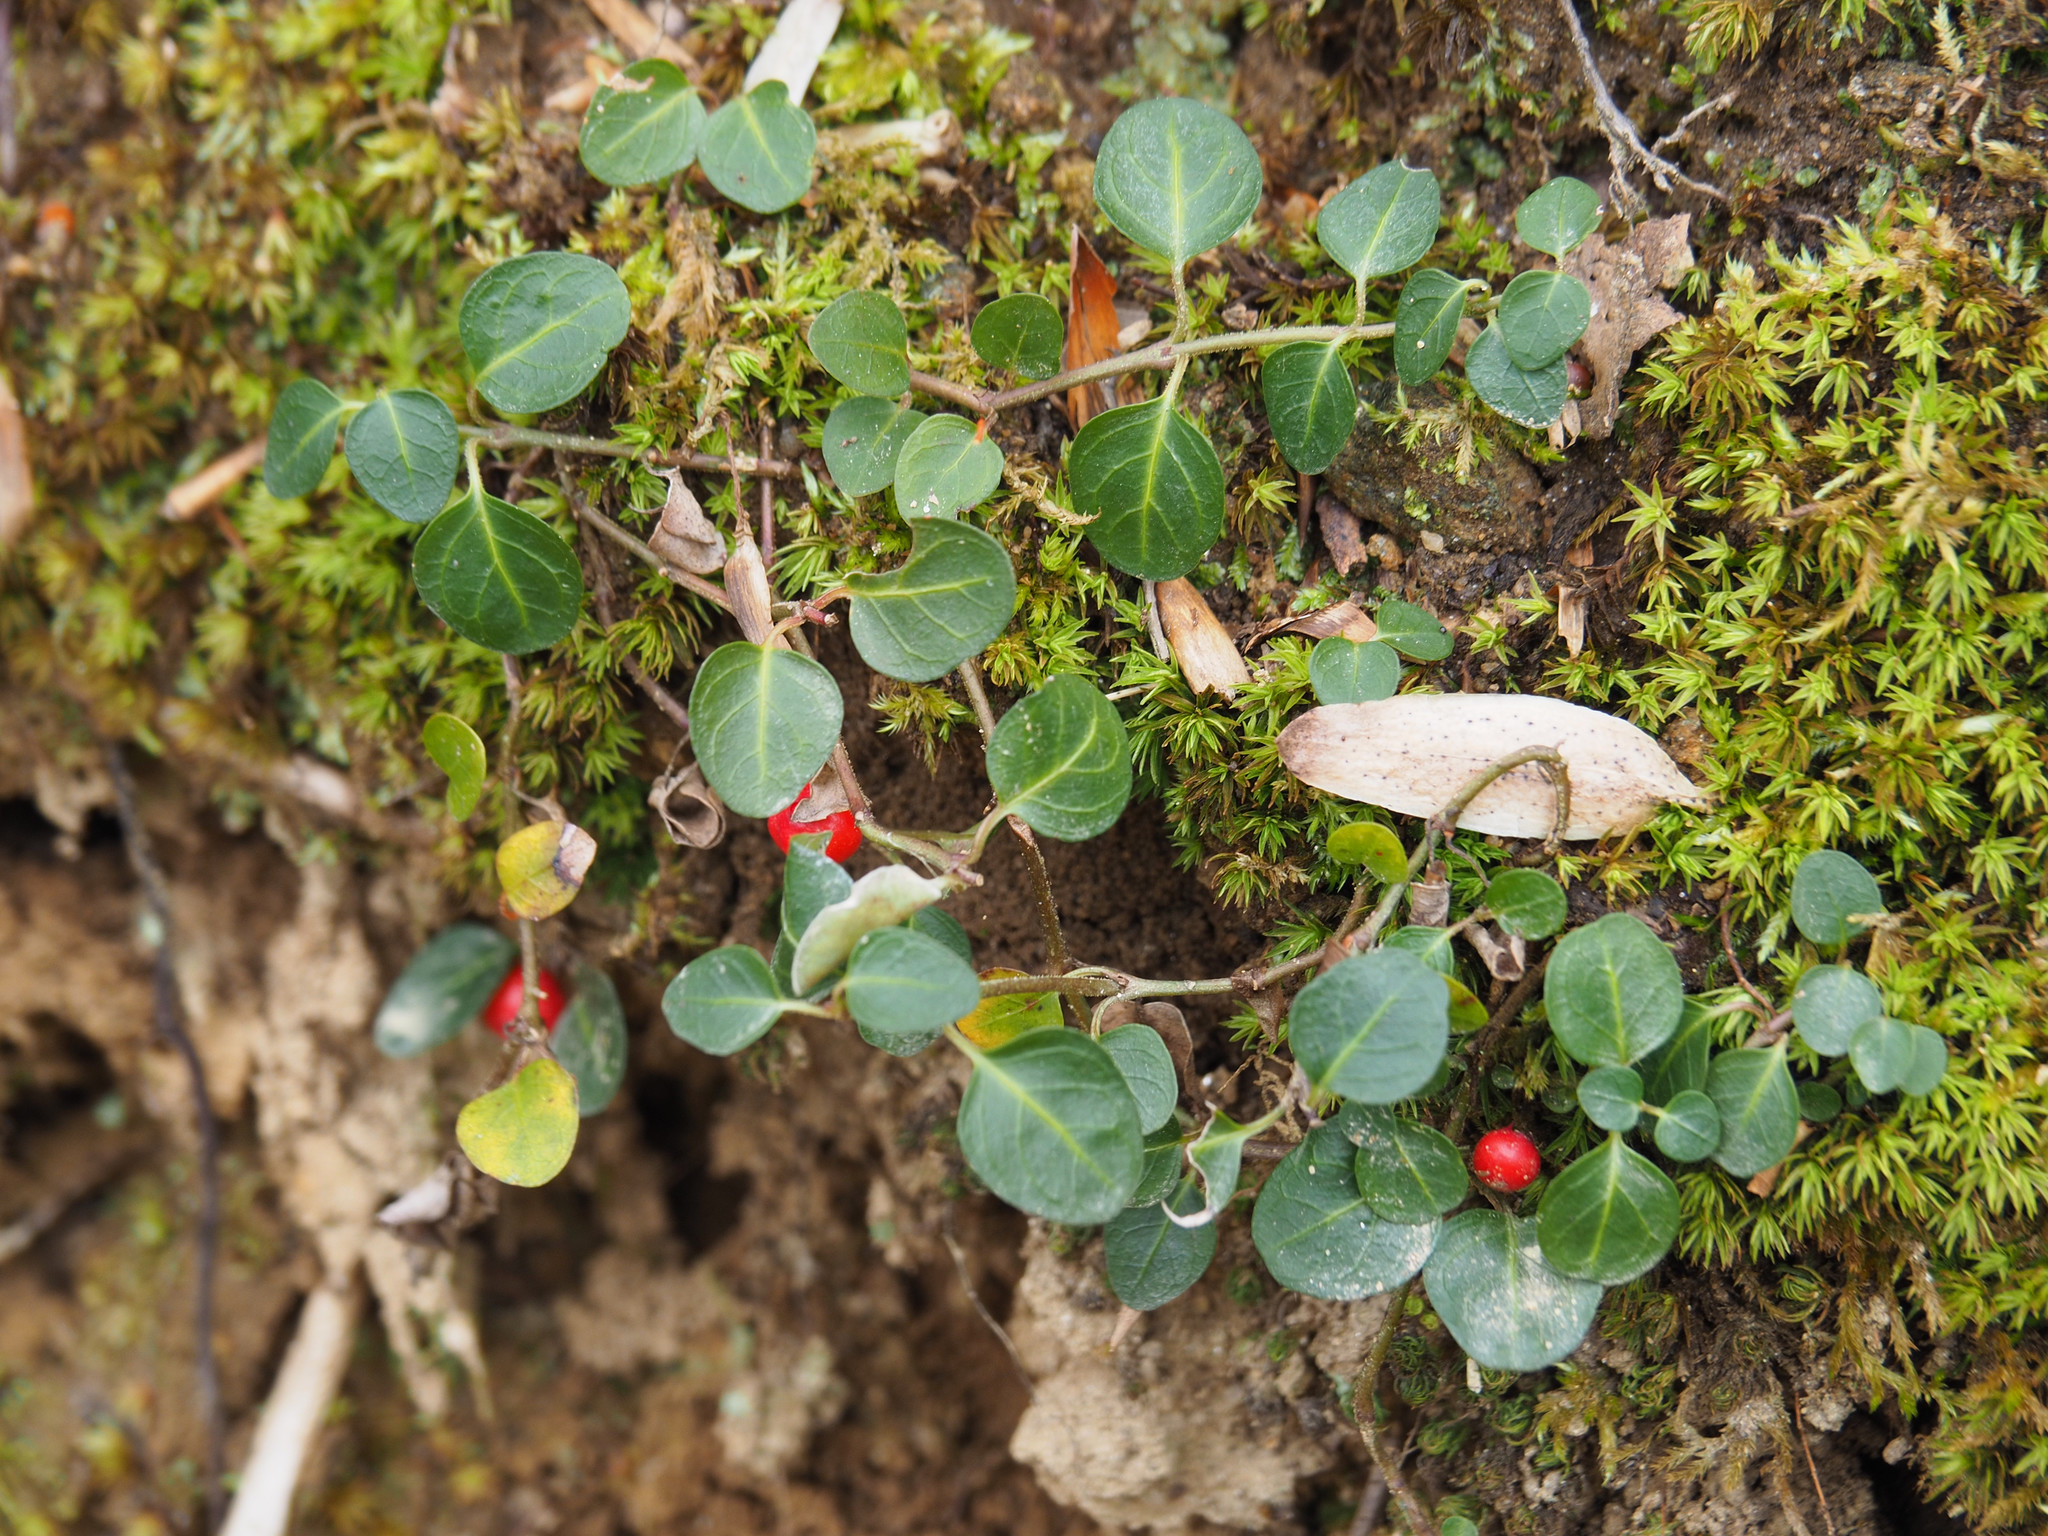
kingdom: Plantae
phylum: Tracheophyta
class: Magnoliopsida
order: Gentianales
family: Rubiaceae
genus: Mitchella
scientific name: Mitchella repens
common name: Partridge-berry
